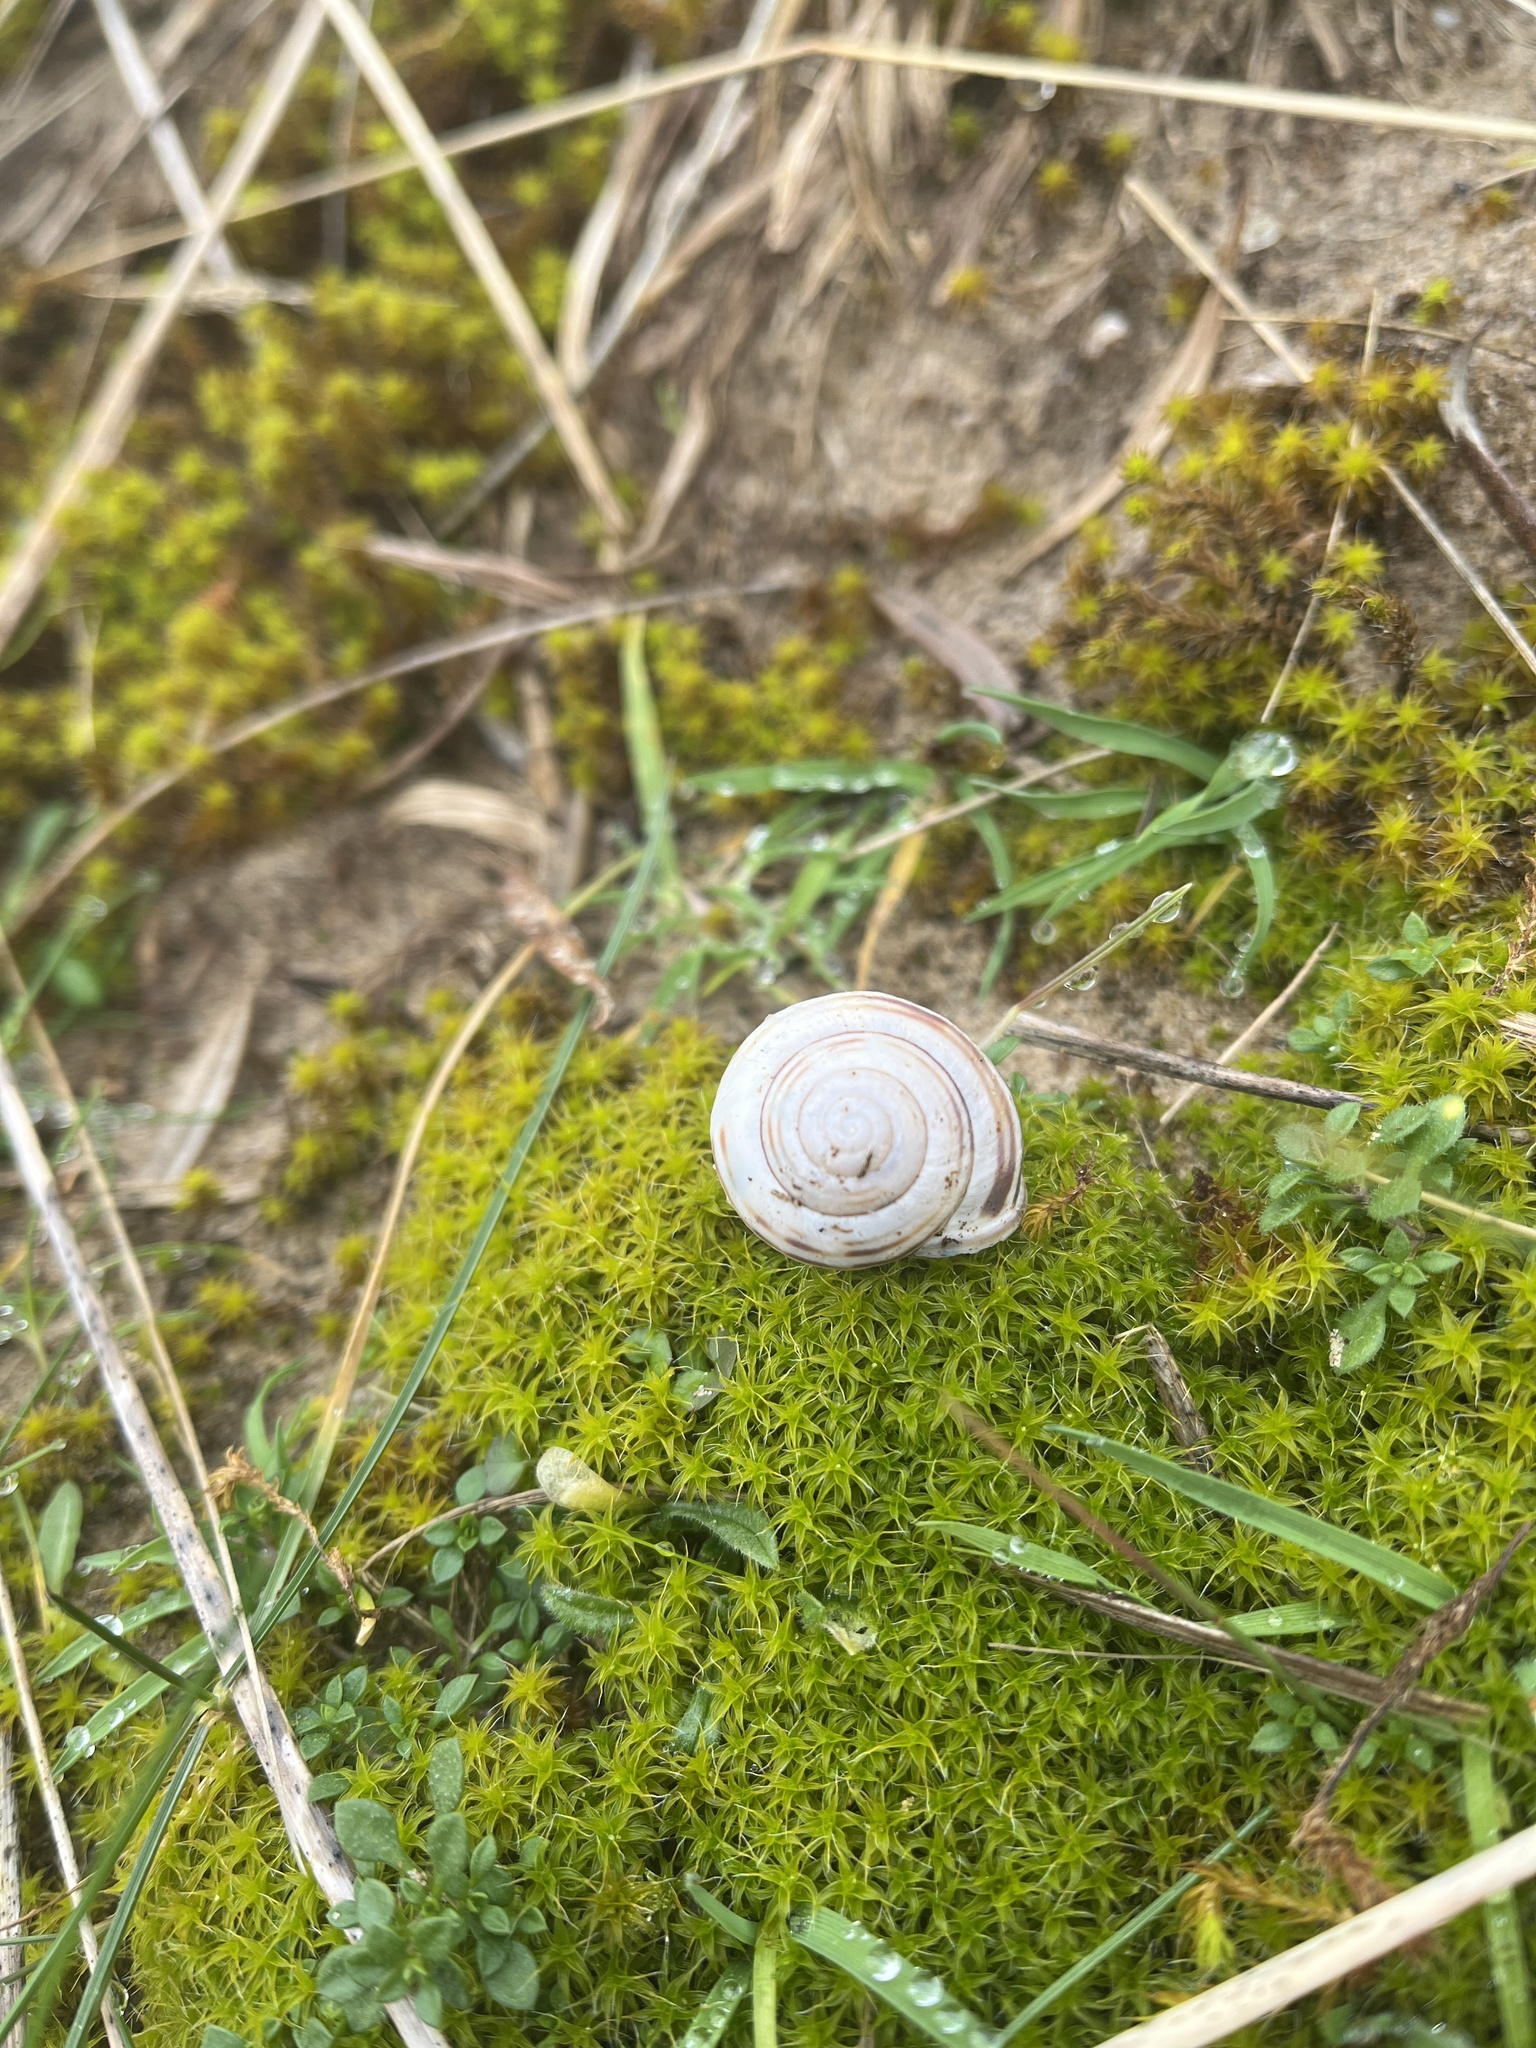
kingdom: Animalia
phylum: Mollusca
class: Gastropoda
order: Stylommatophora
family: Helicidae
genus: Cepaea
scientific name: Cepaea nemoralis
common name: Grovesnail
